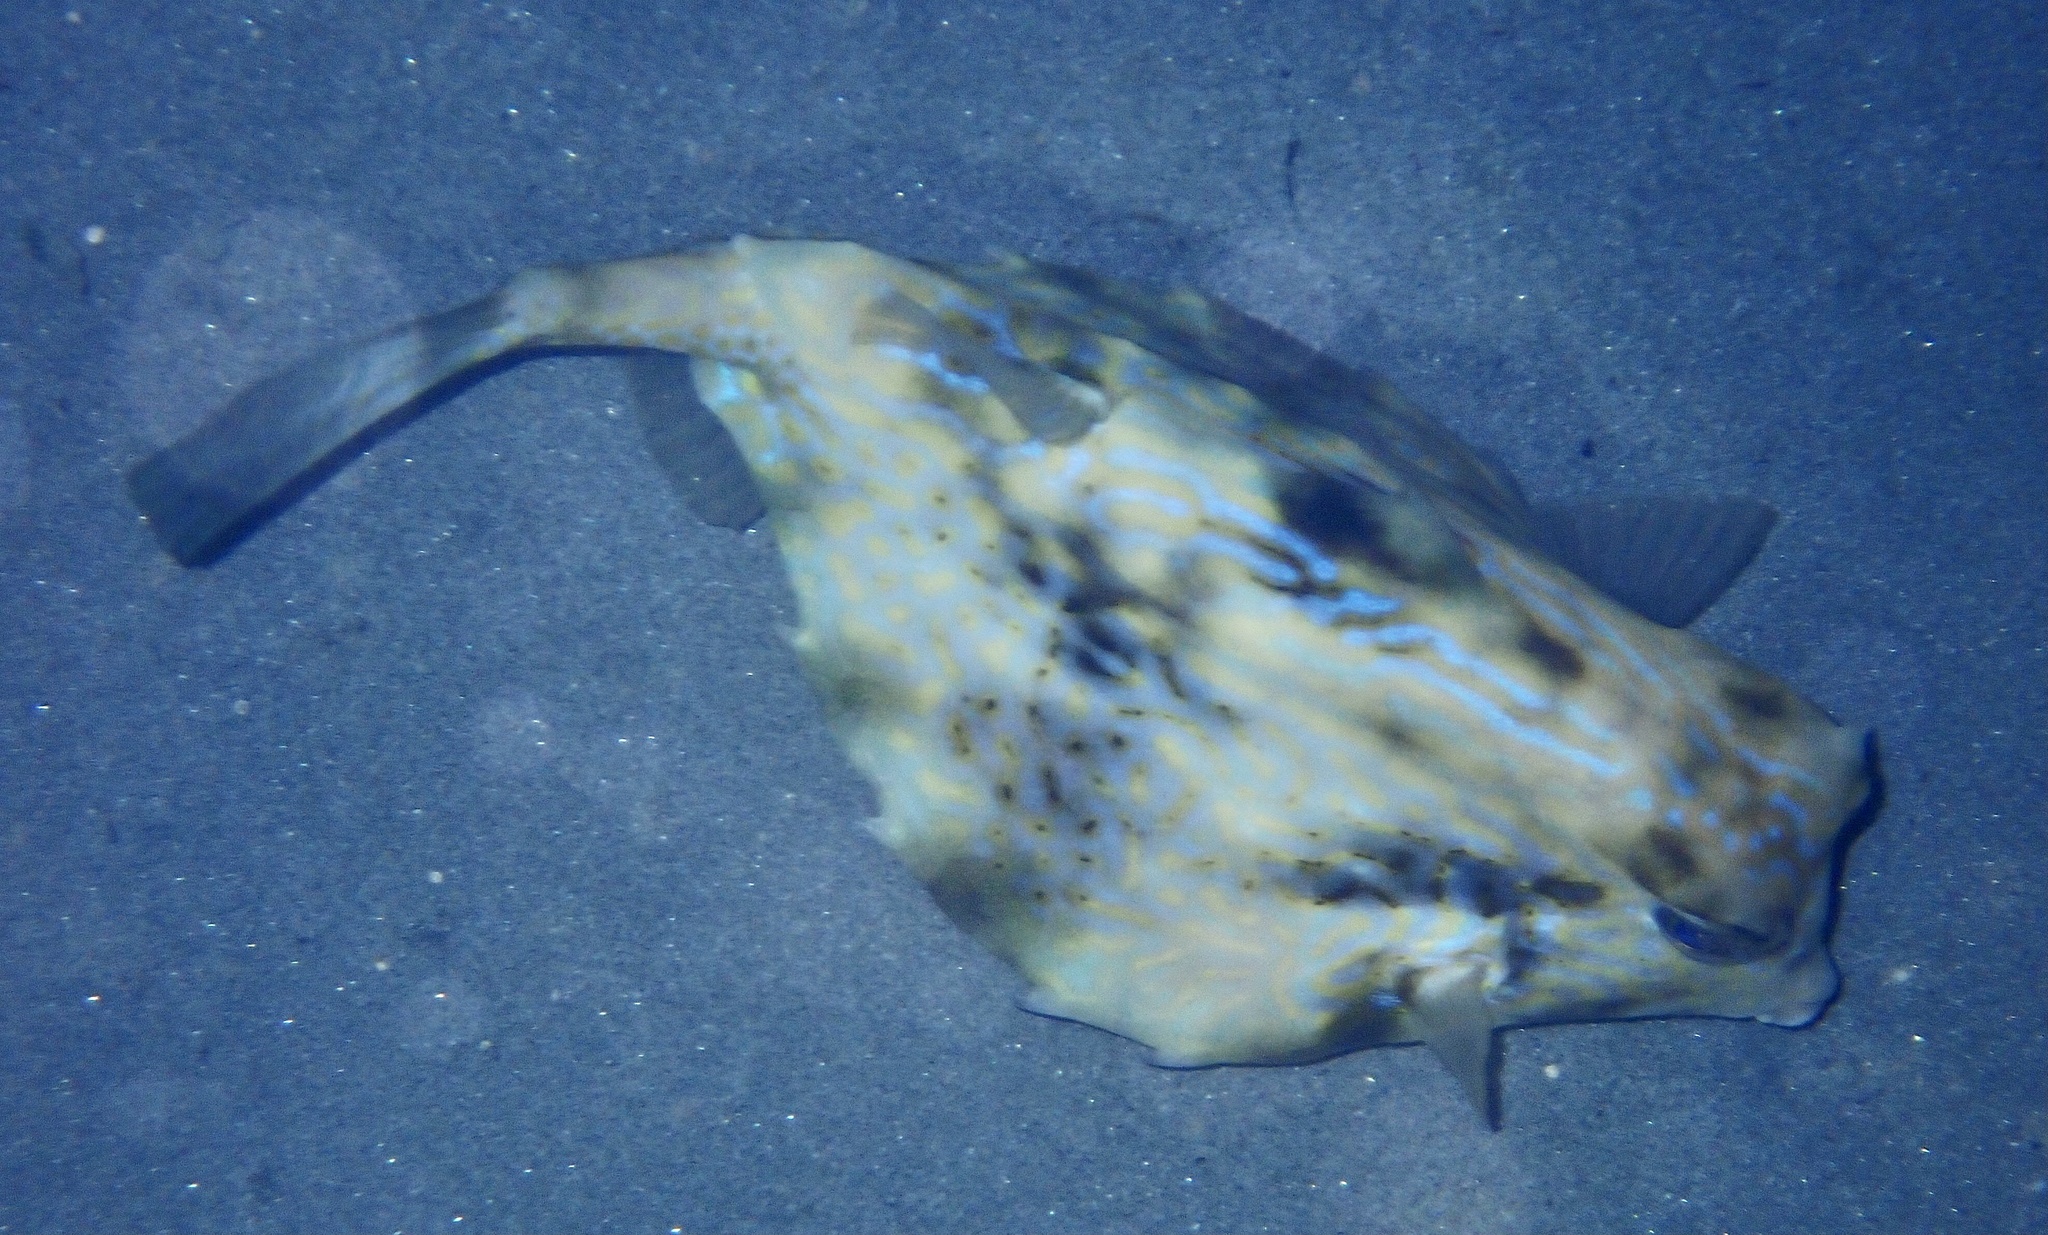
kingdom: Animalia
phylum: Chordata
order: Tetraodontiformes
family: Ostraciidae
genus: Tetrosomus
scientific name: Tetrosomus gibbosus
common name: Humpback turretfish
